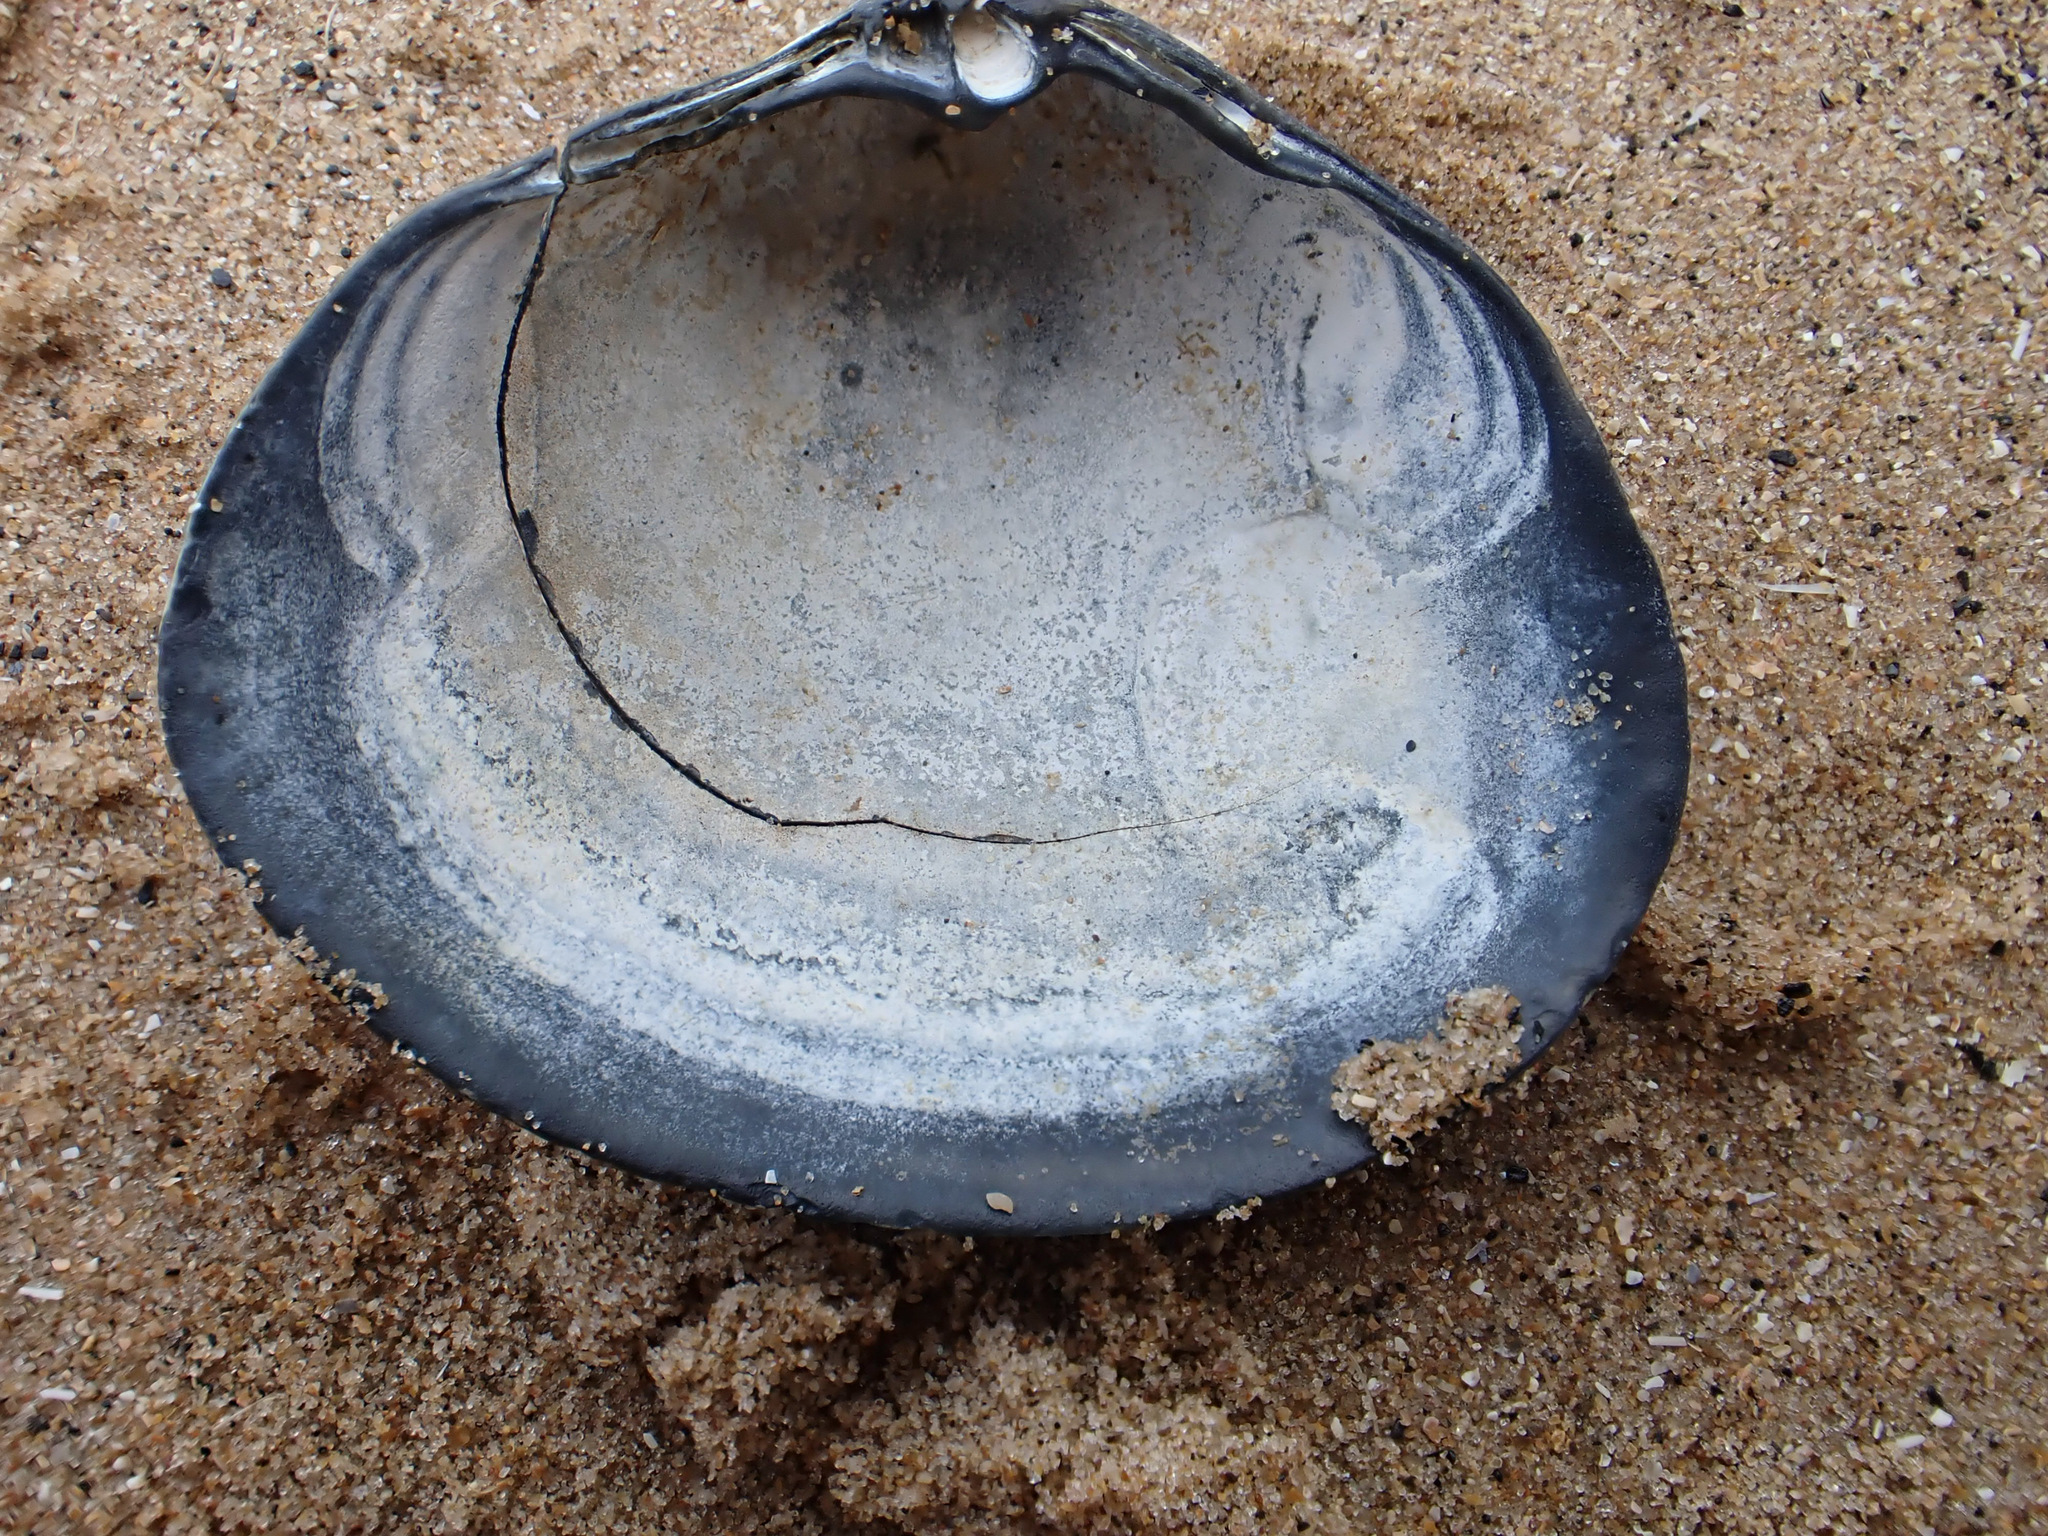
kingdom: Animalia
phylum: Mollusca
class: Bivalvia
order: Venerida
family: Mactridae
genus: Spisula
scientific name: Spisula solida
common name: Thick trough shell
